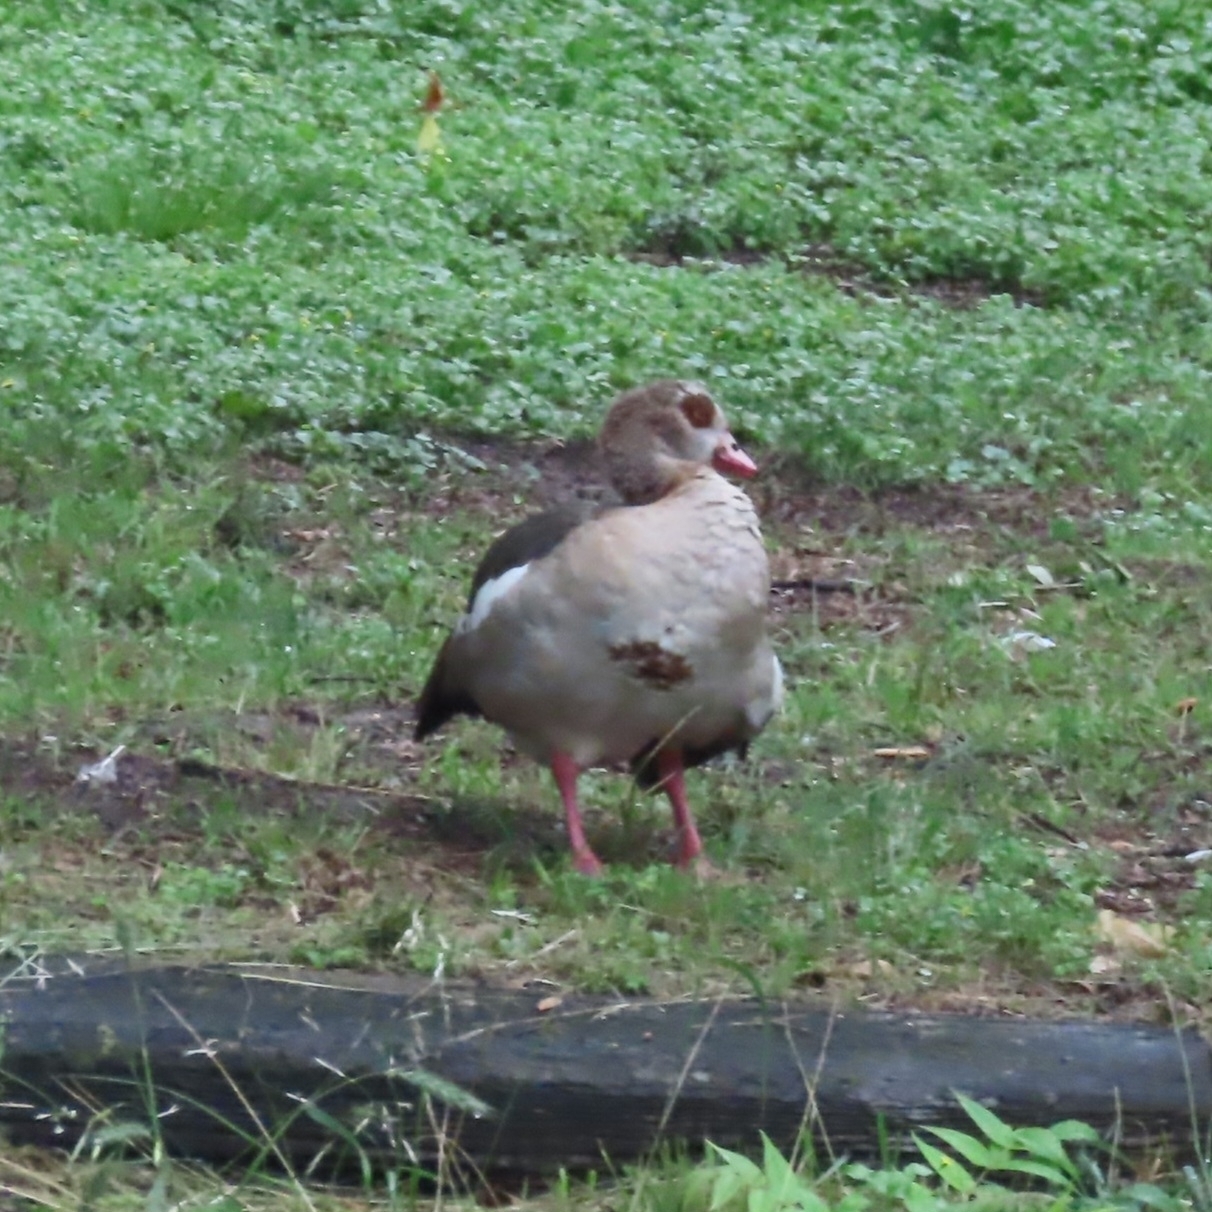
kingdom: Animalia
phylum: Chordata
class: Aves
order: Anseriformes
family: Anatidae
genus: Alopochen
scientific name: Alopochen aegyptiaca
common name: Egyptian goose
